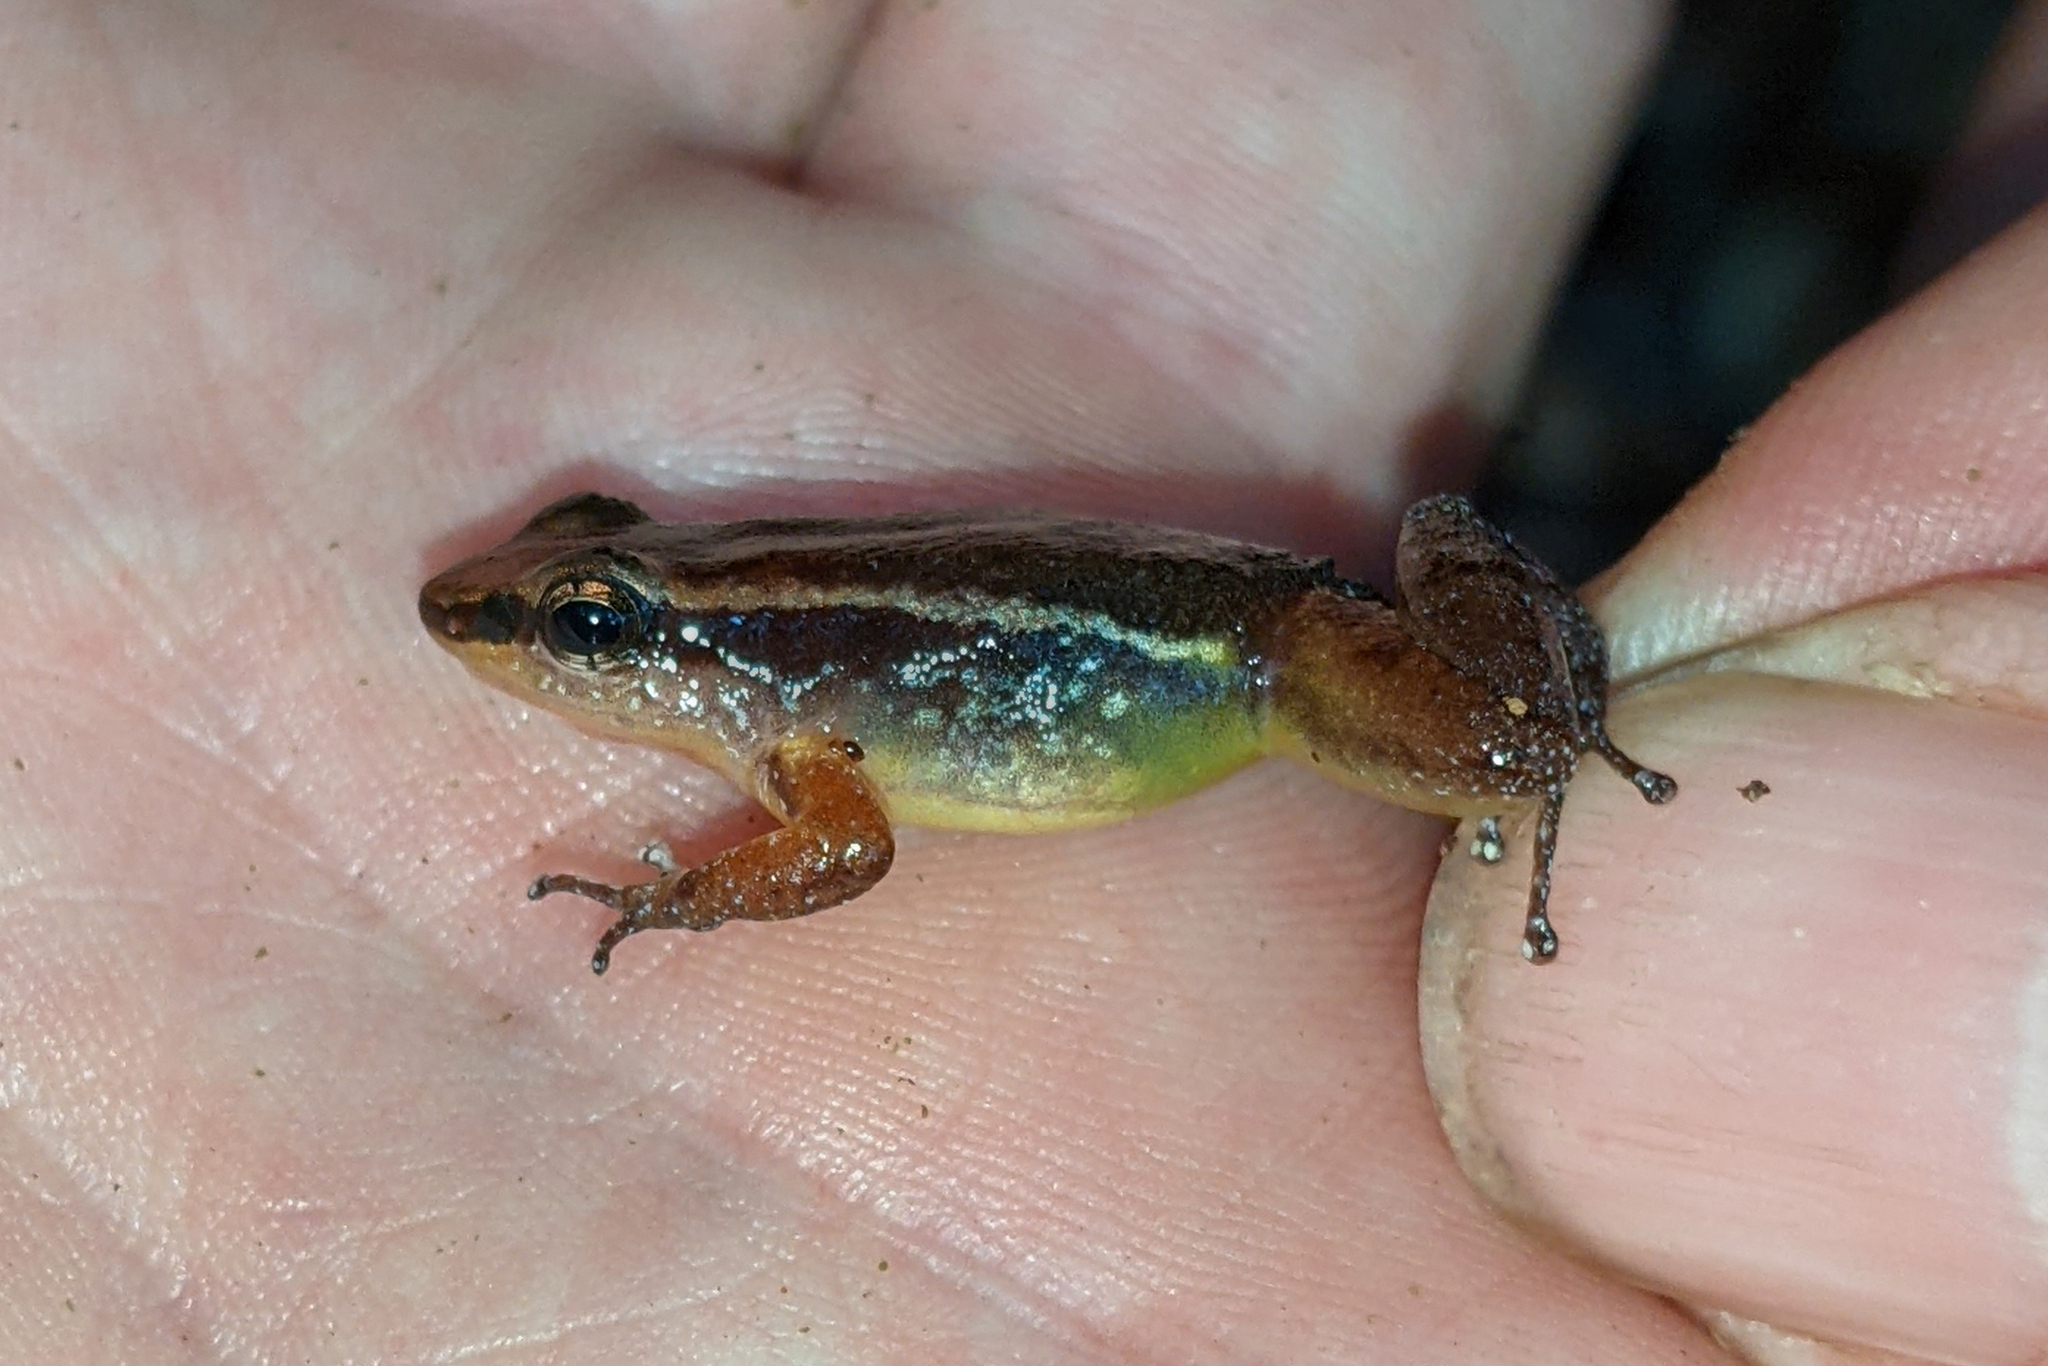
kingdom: Animalia
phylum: Chordata
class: Amphibia
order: Anura
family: Aromobatidae
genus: Anomaloglossus
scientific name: Anomaloglossus baeobatrachus
